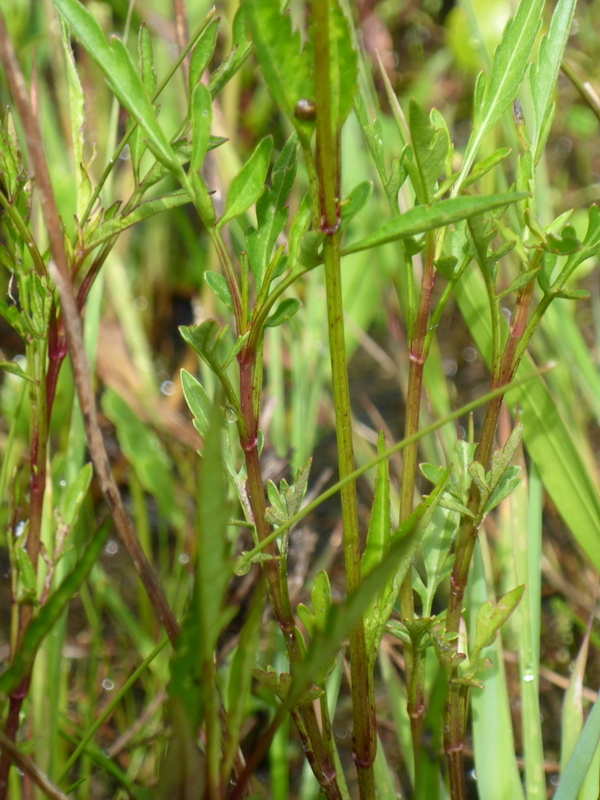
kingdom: Plantae
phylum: Tracheophyta
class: Magnoliopsida
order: Asterales
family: Asteraceae
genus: Bidens
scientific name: Bidens trichosperma
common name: Crowned beggarticks
